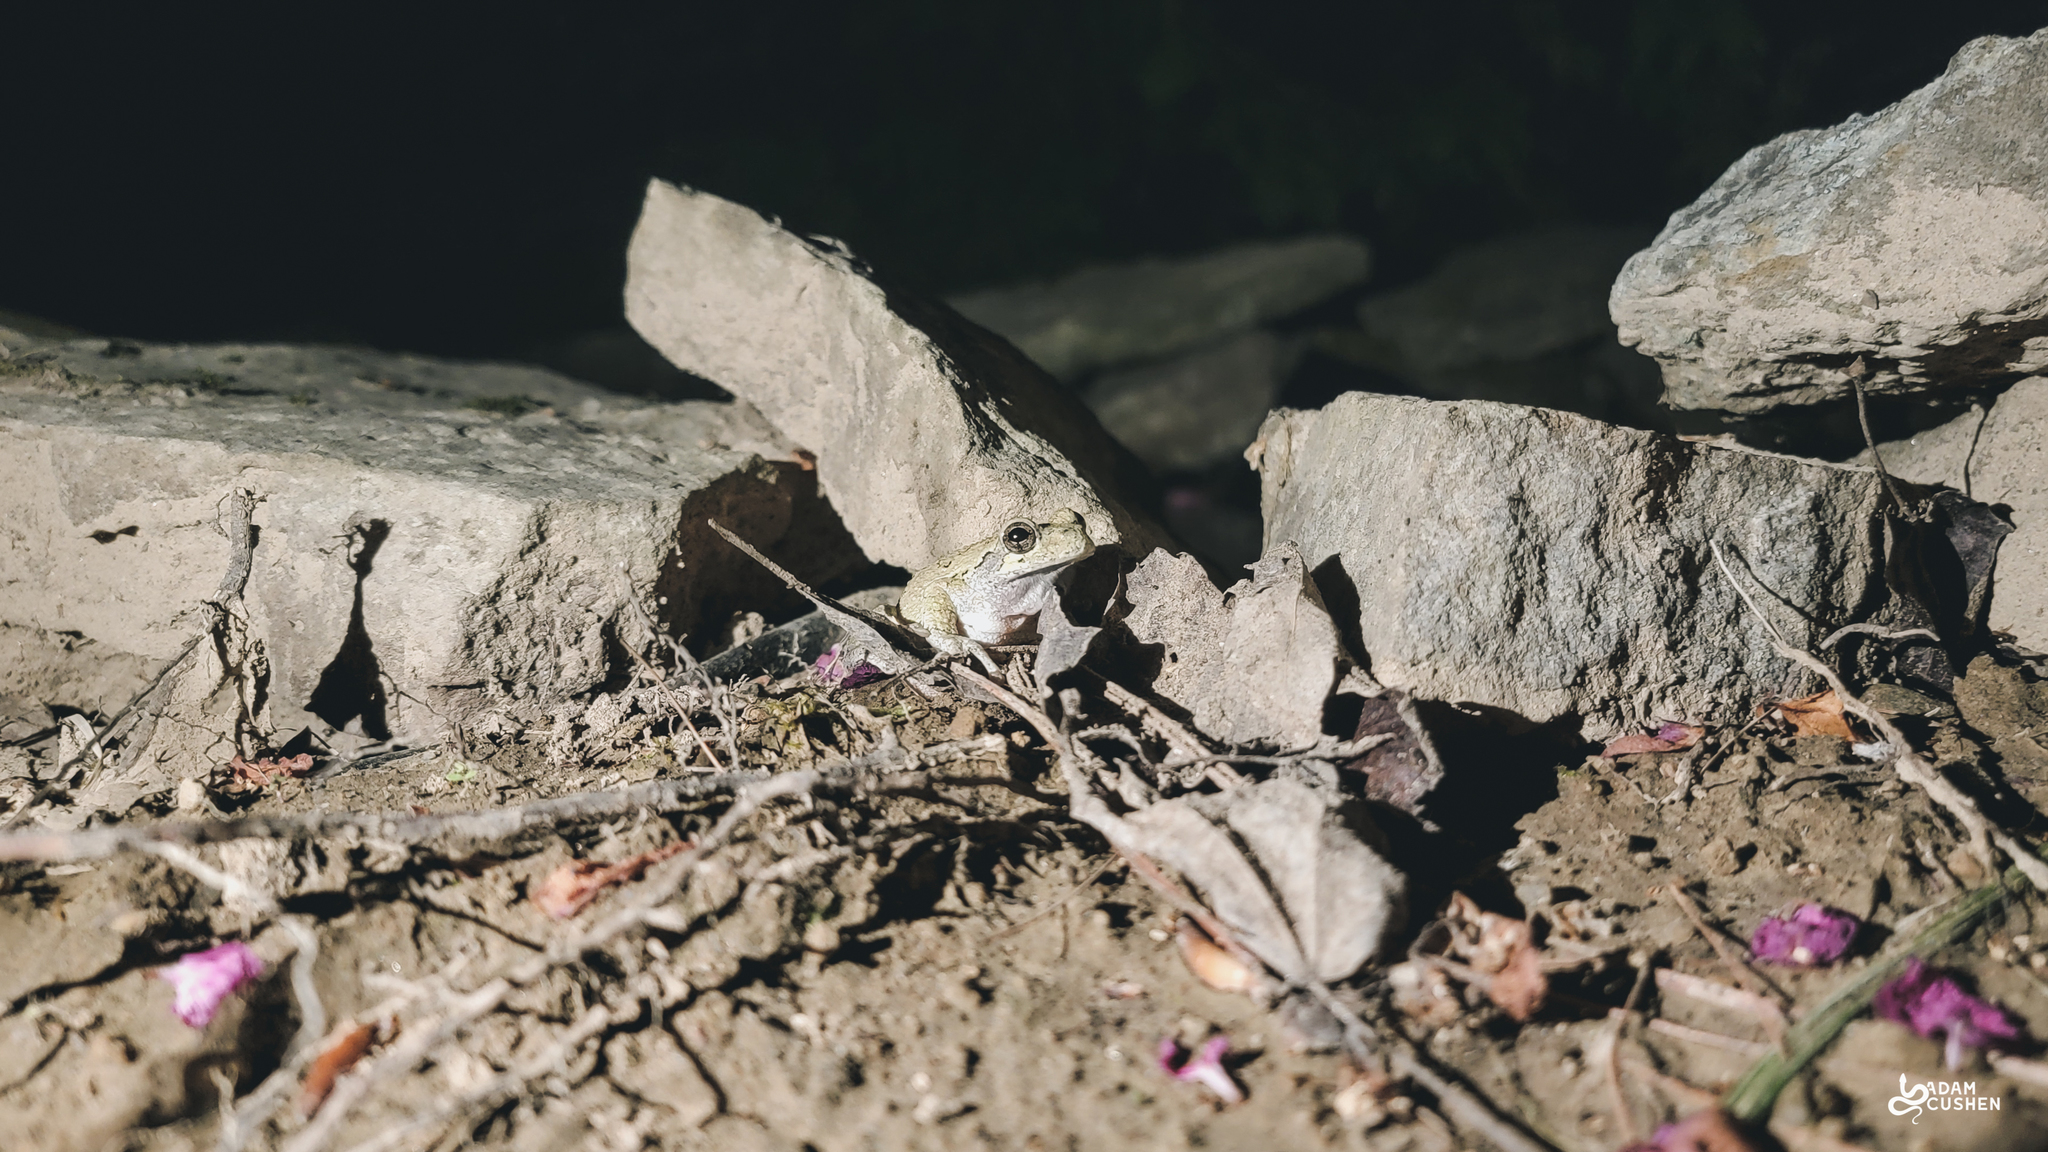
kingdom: Animalia
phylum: Chordata
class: Amphibia
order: Anura
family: Hylidae
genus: Dryophytes
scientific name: Dryophytes versicolor
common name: Gray treefrog
